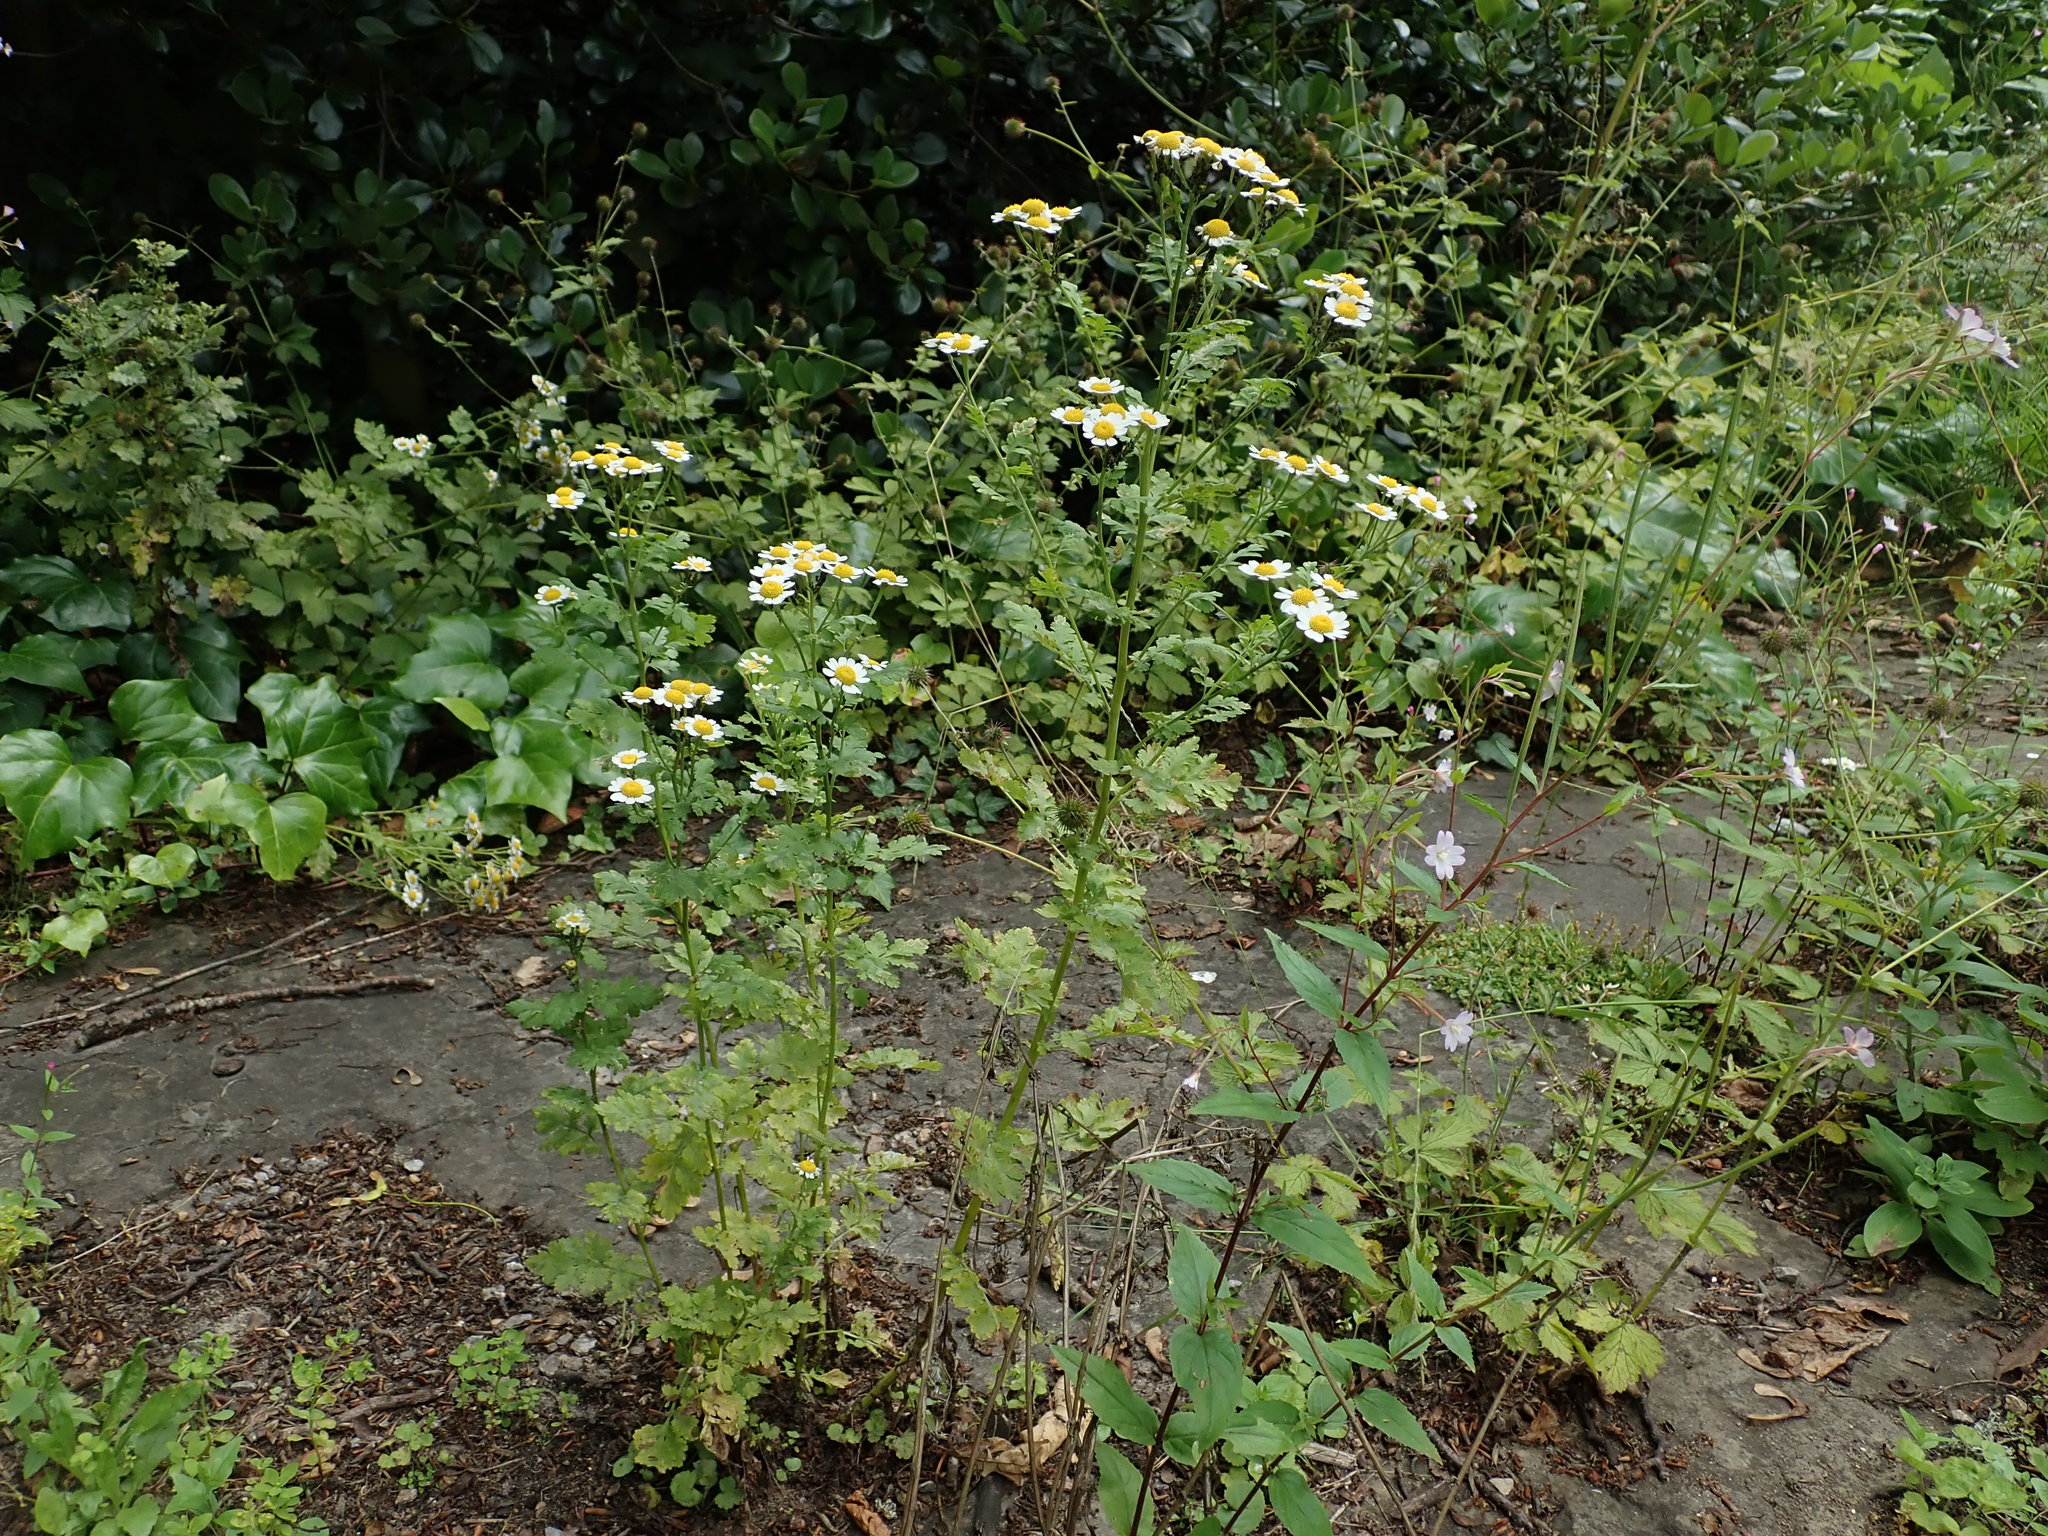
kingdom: Plantae
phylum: Tracheophyta
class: Magnoliopsida
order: Asterales
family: Asteraceae
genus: Tanacetum
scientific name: Tanacetum parthenium
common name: Feverfew
